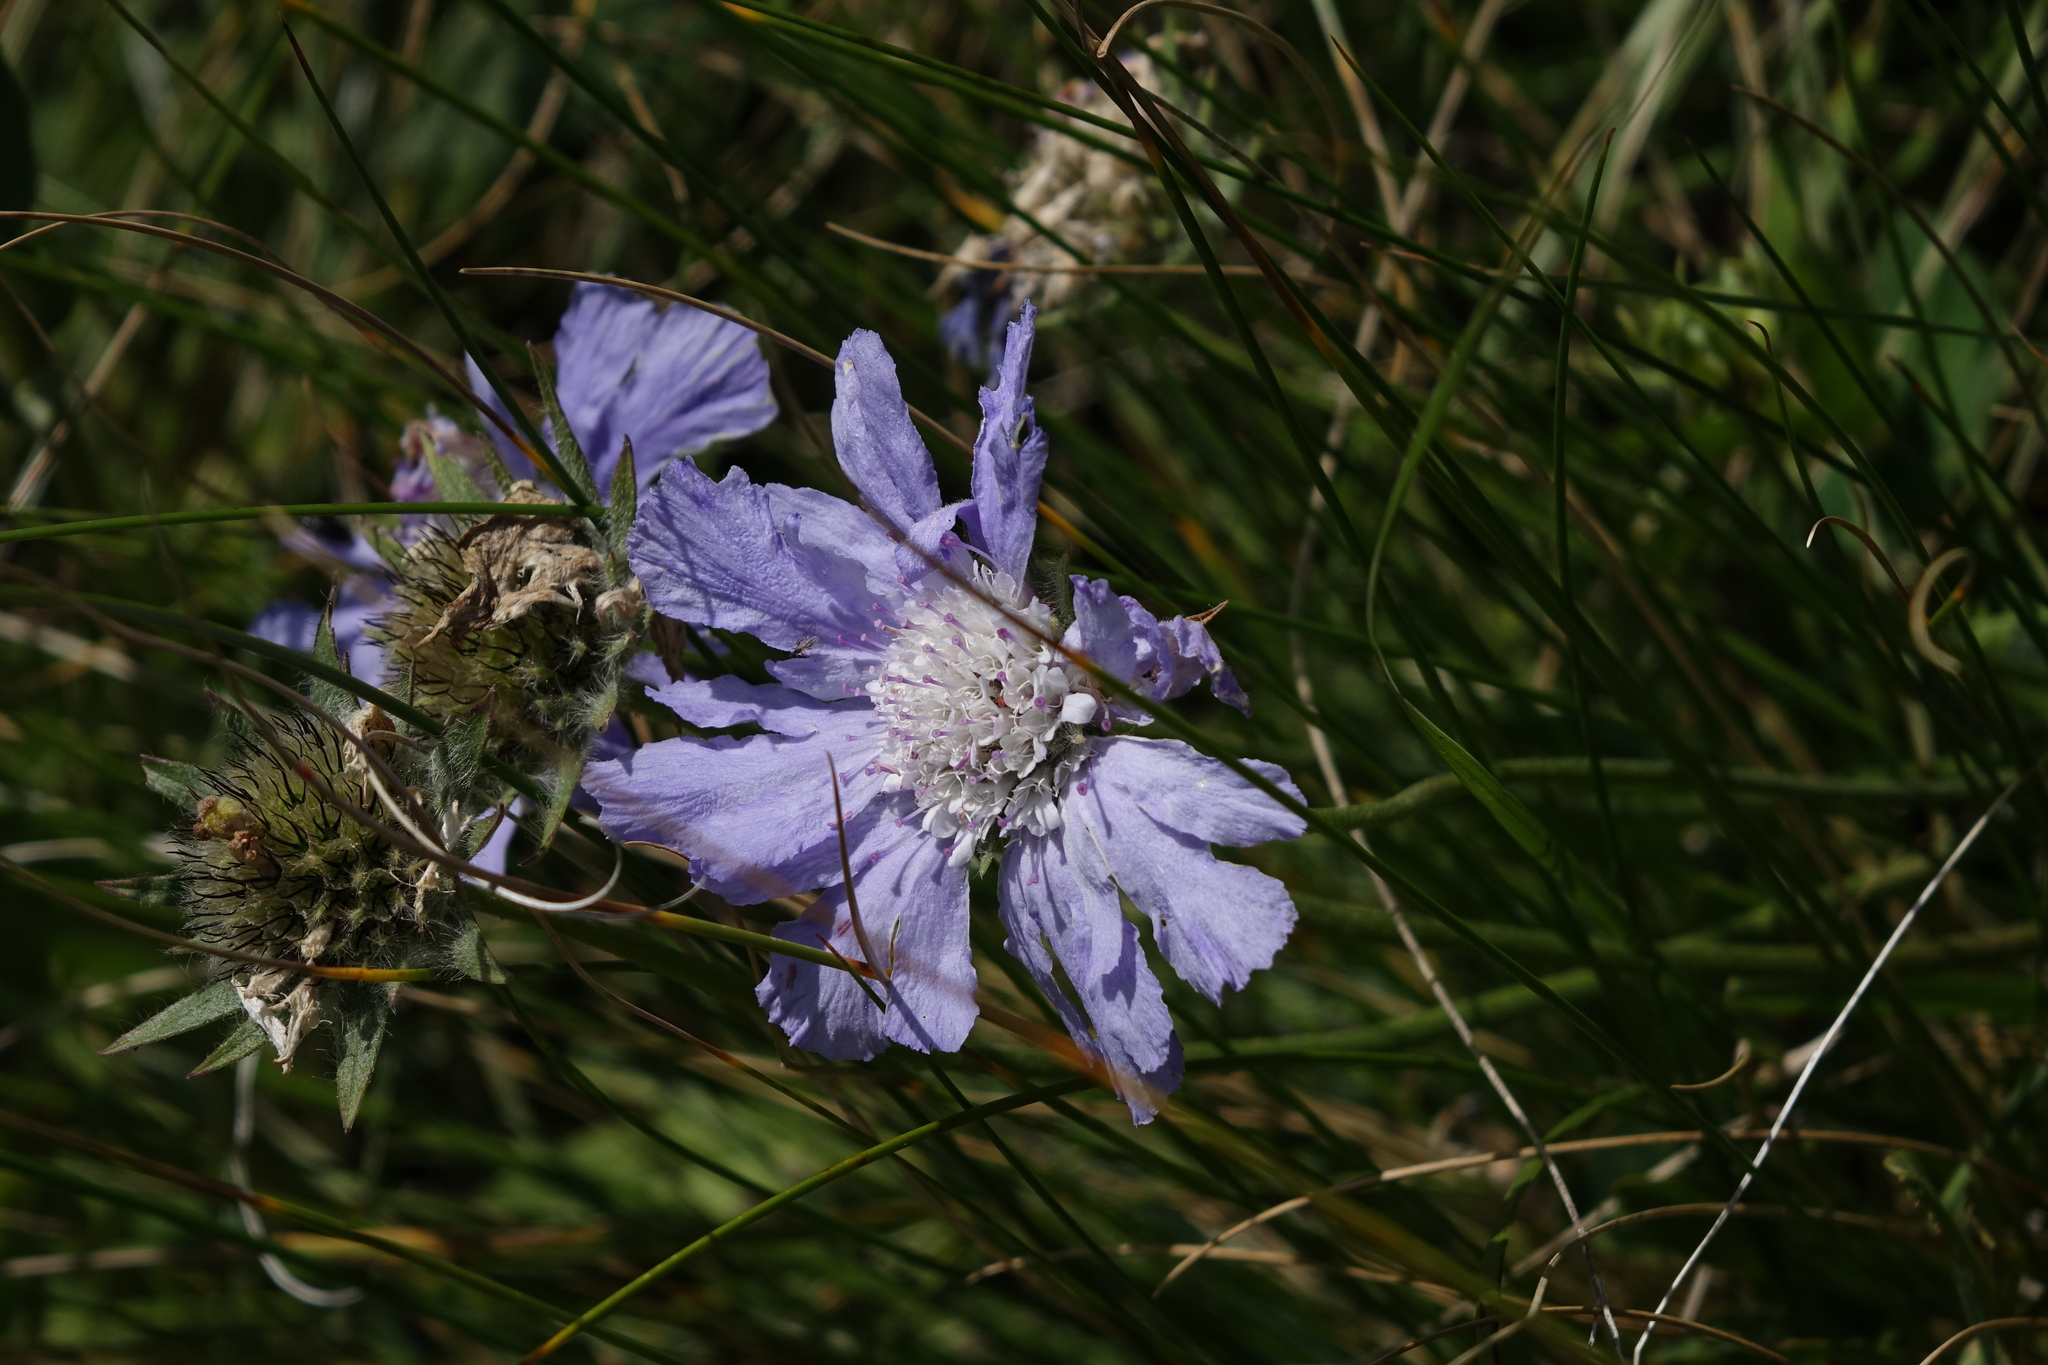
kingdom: Plantae
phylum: Tracheophyta
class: Magnoliopsida
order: Dipsacales
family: Caprifoliaceae
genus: Lomelosia
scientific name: Lomelosia caucasica
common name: Pincushion-flower
